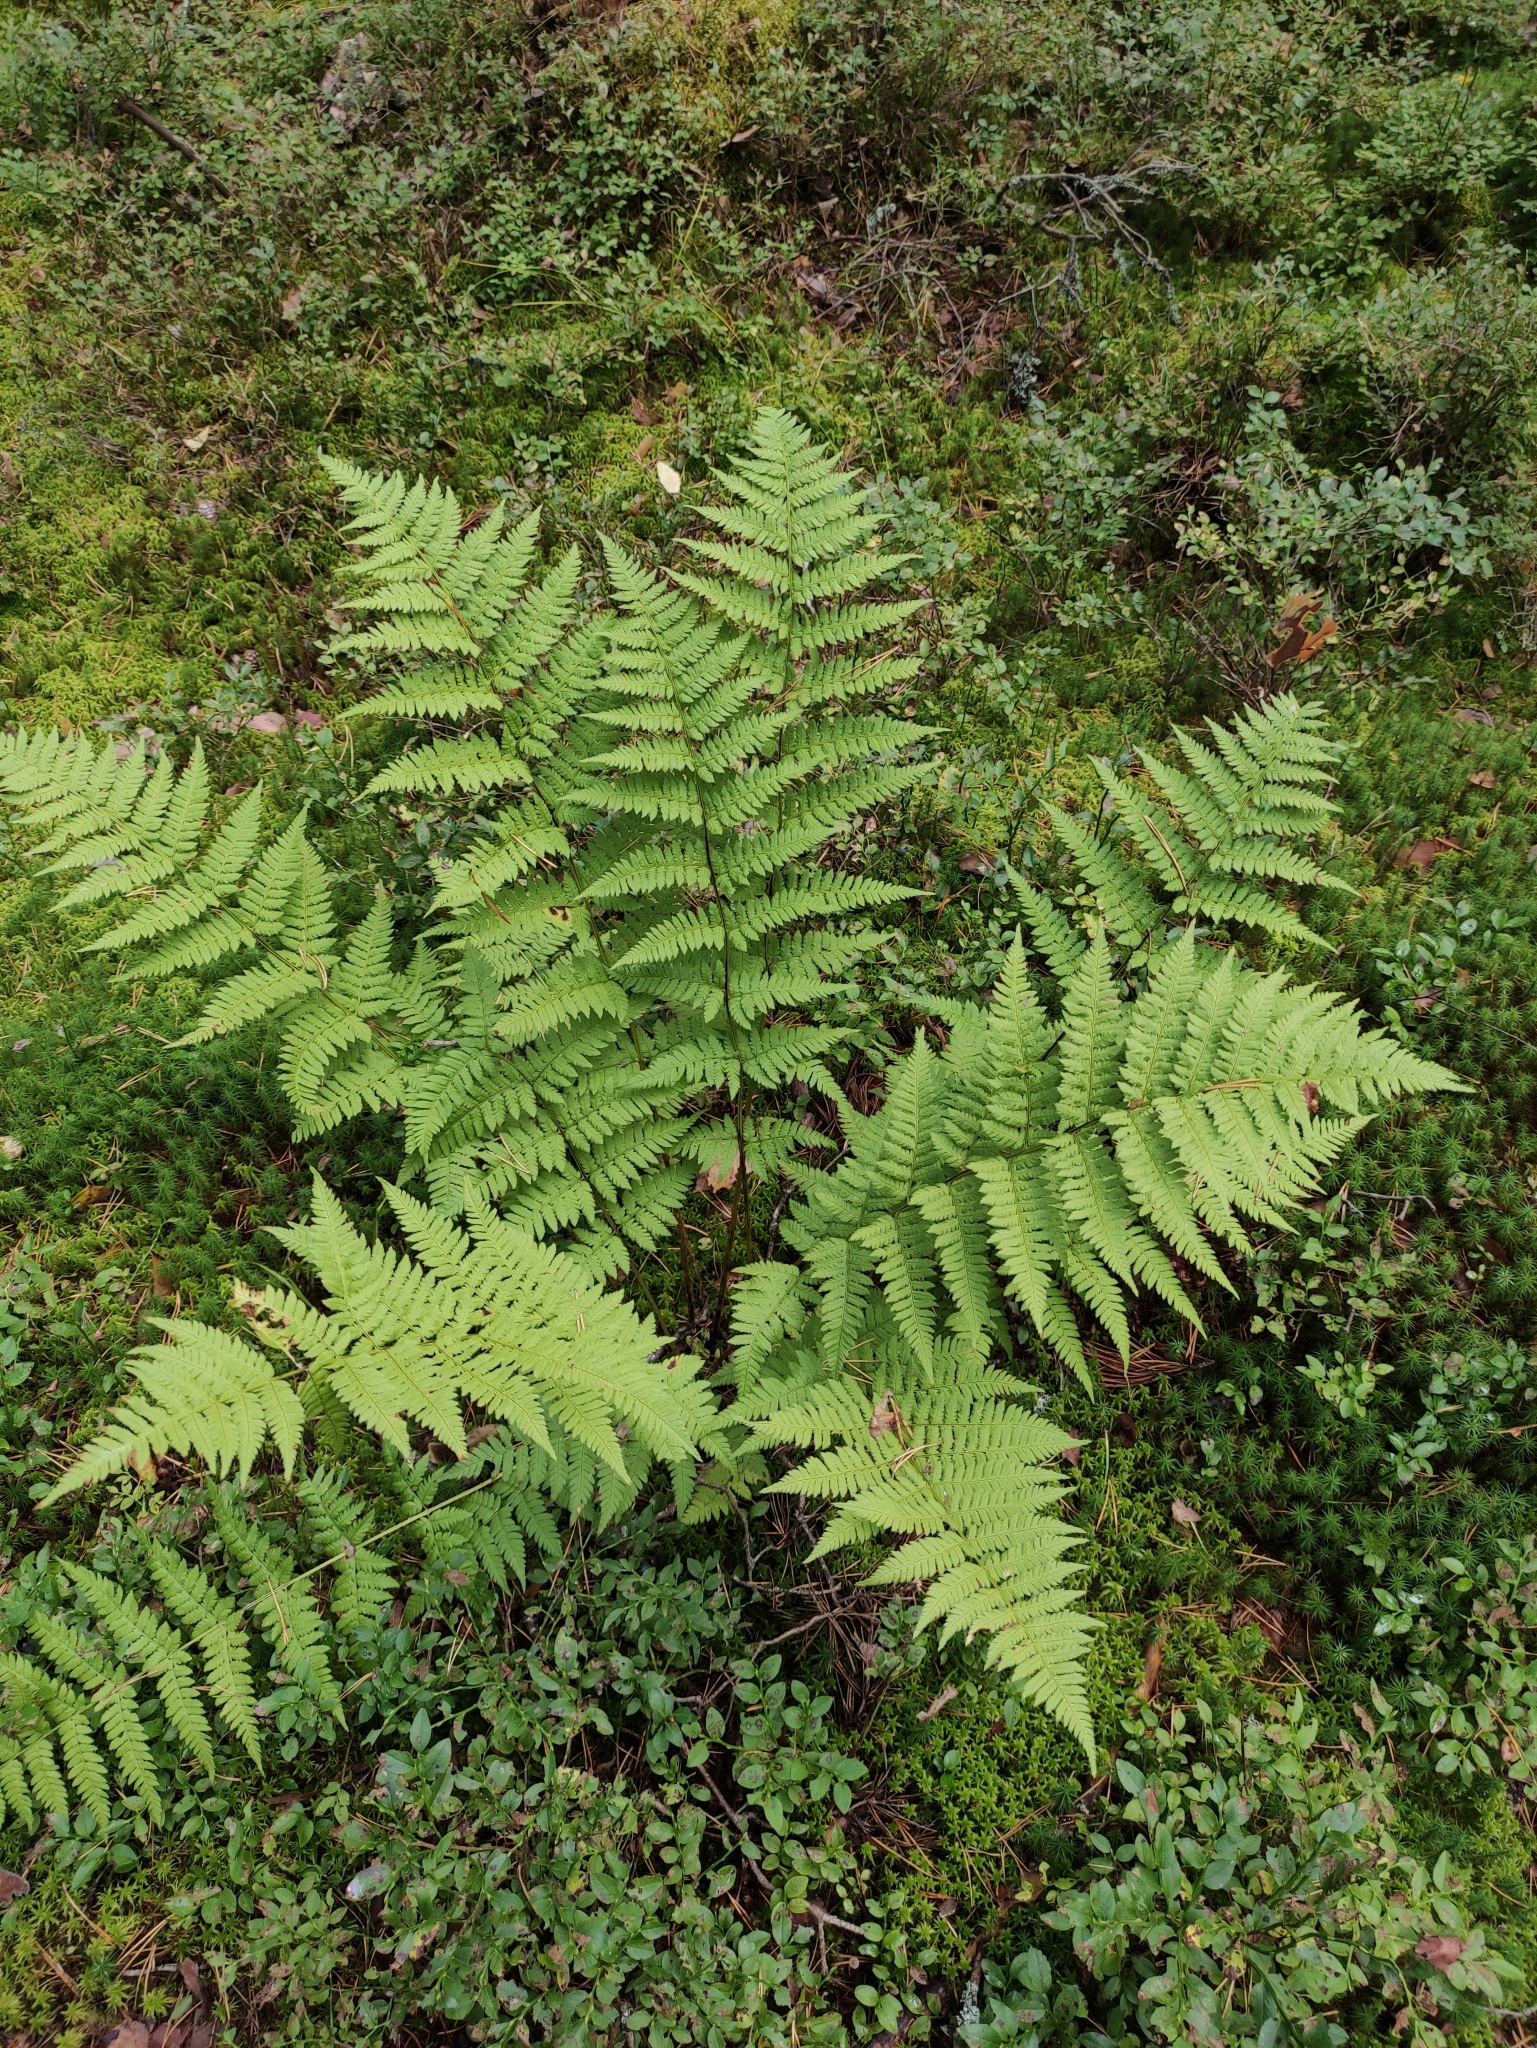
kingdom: Plantae
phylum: Tracheophyta
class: Polypodiopsida
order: Polypodiales
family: Dryopteridaceae
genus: Dryopteris
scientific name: Dryopteris carthusiana
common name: Narrow buckler-fern
